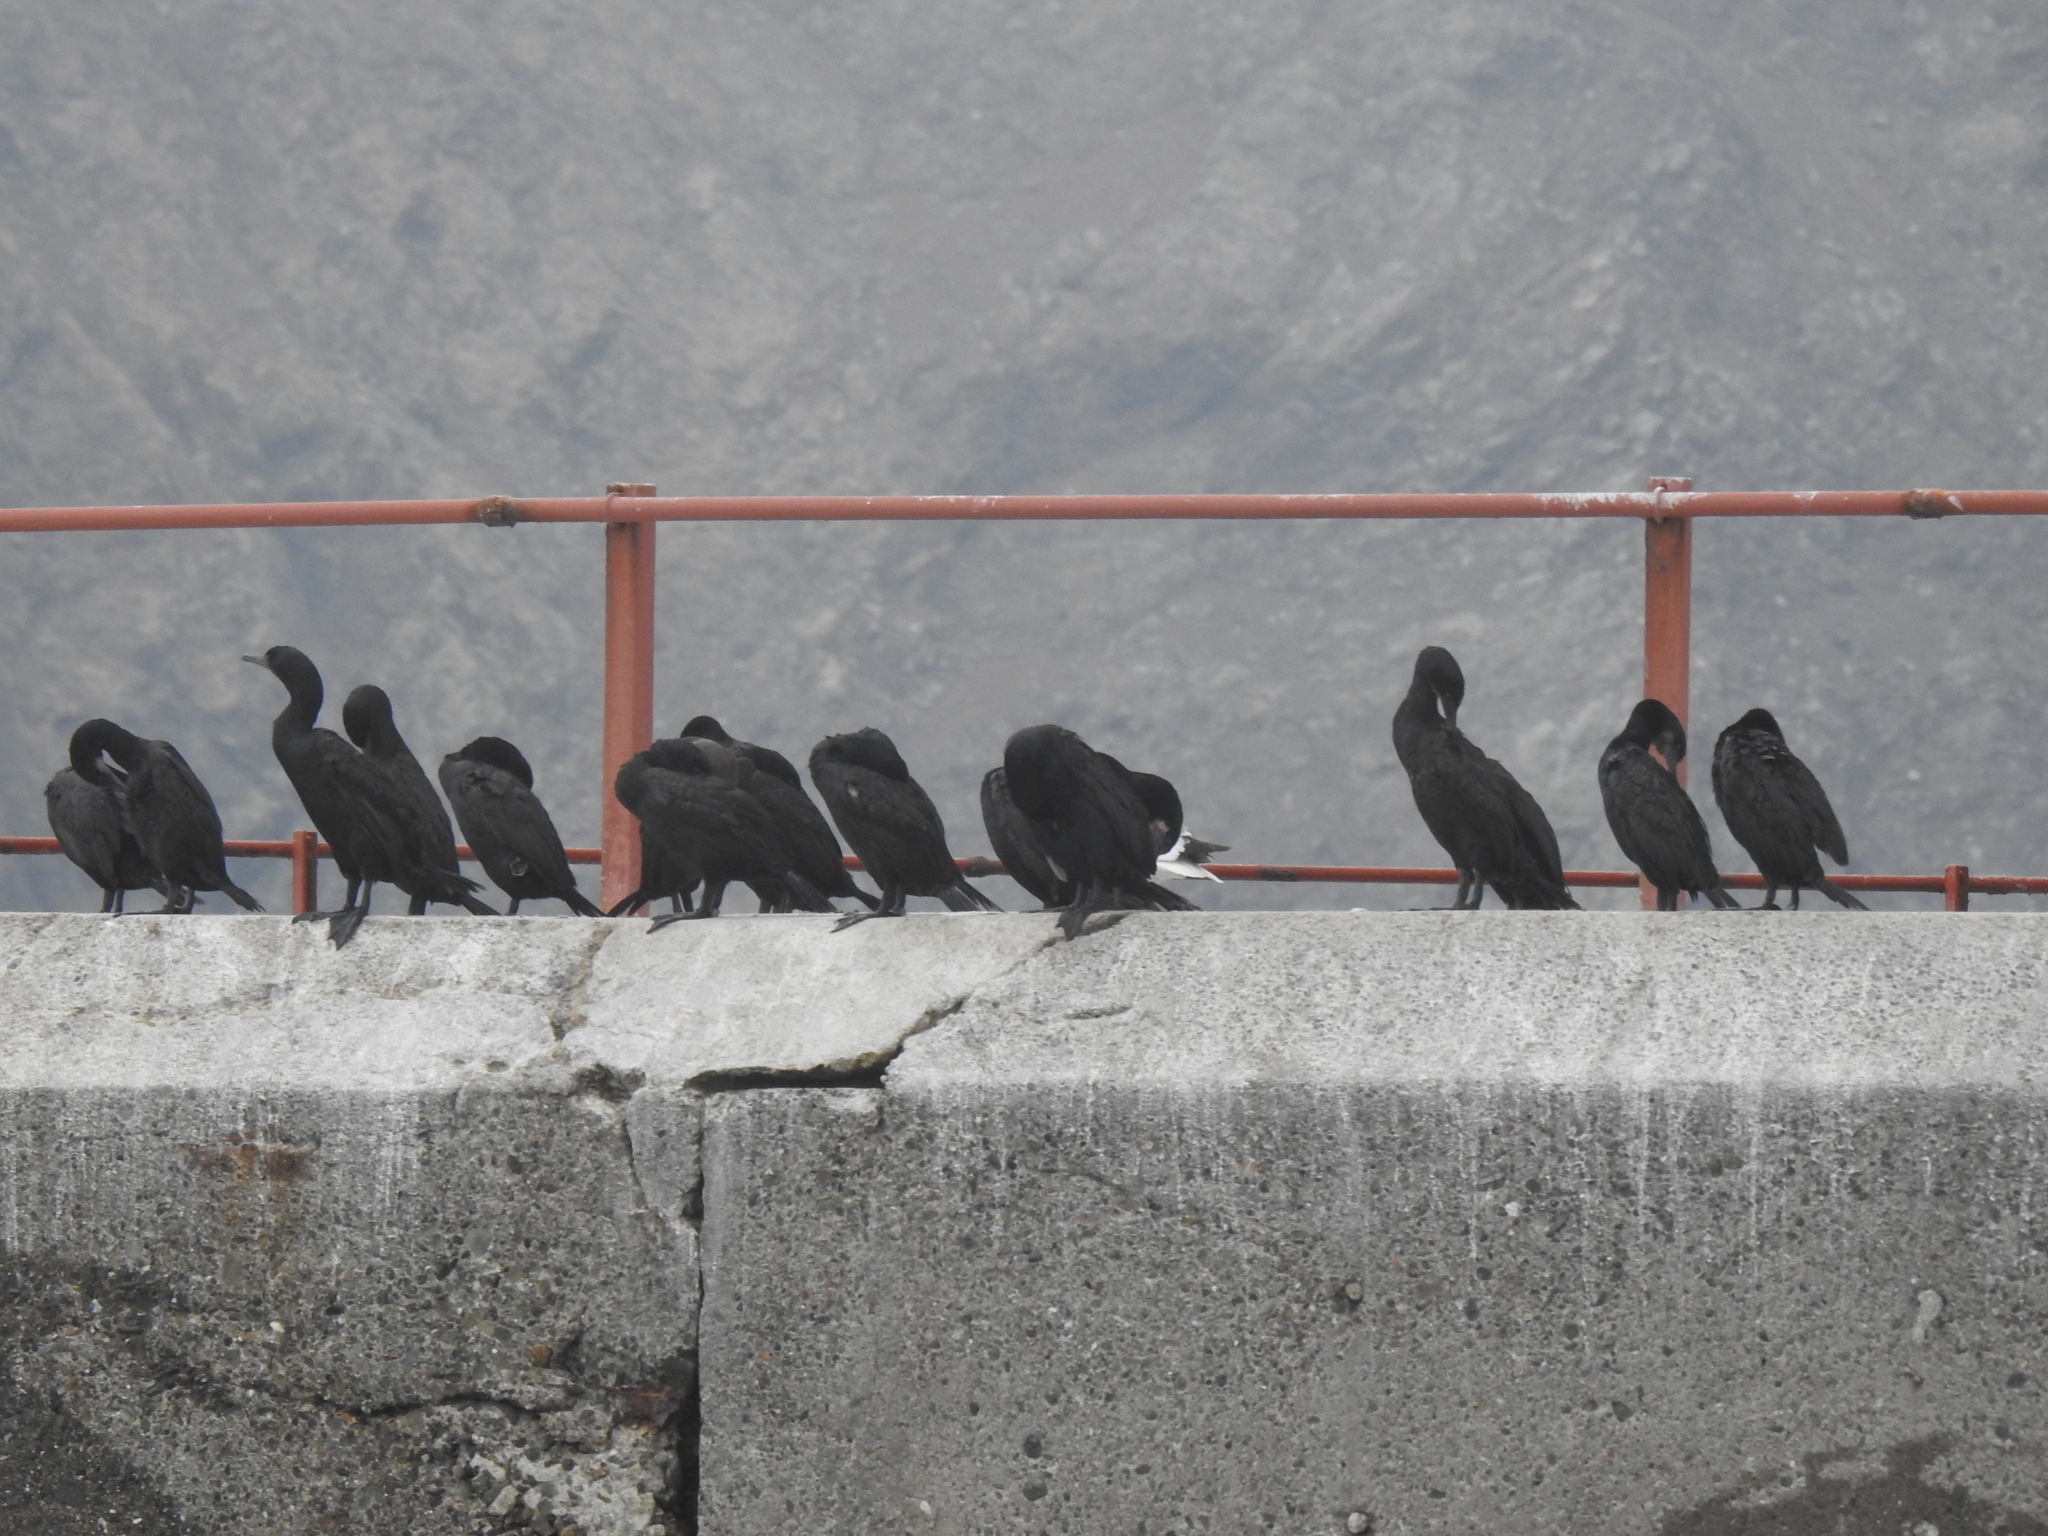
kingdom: Animalia
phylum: Chordata
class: Aves
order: Suliformes
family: Phalacrocoracidae
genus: Urile
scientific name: Urile penicillatus
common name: Brandt's cormorant
